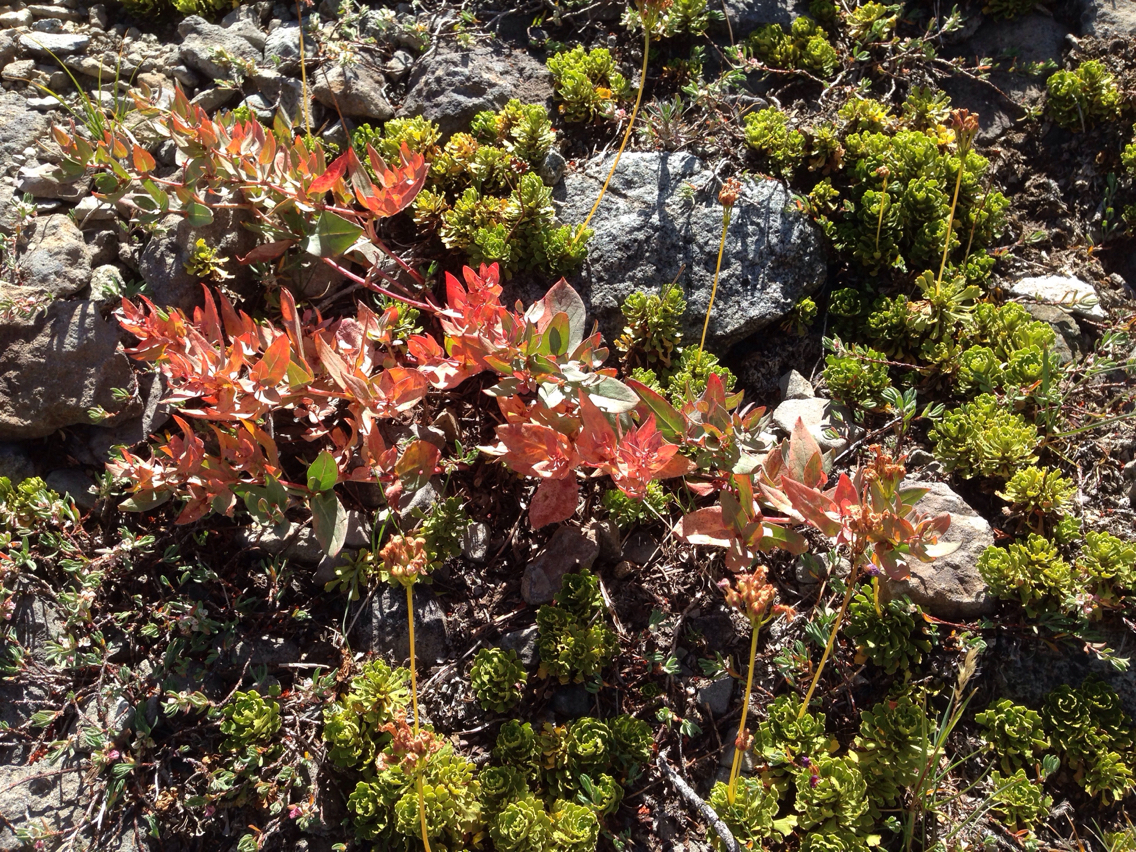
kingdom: Plantae
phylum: Tracheophyta
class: Magnoliopsida
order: Caryophyllales
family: Polygonaceae
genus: Koenigia
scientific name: Koenigia davisiae
